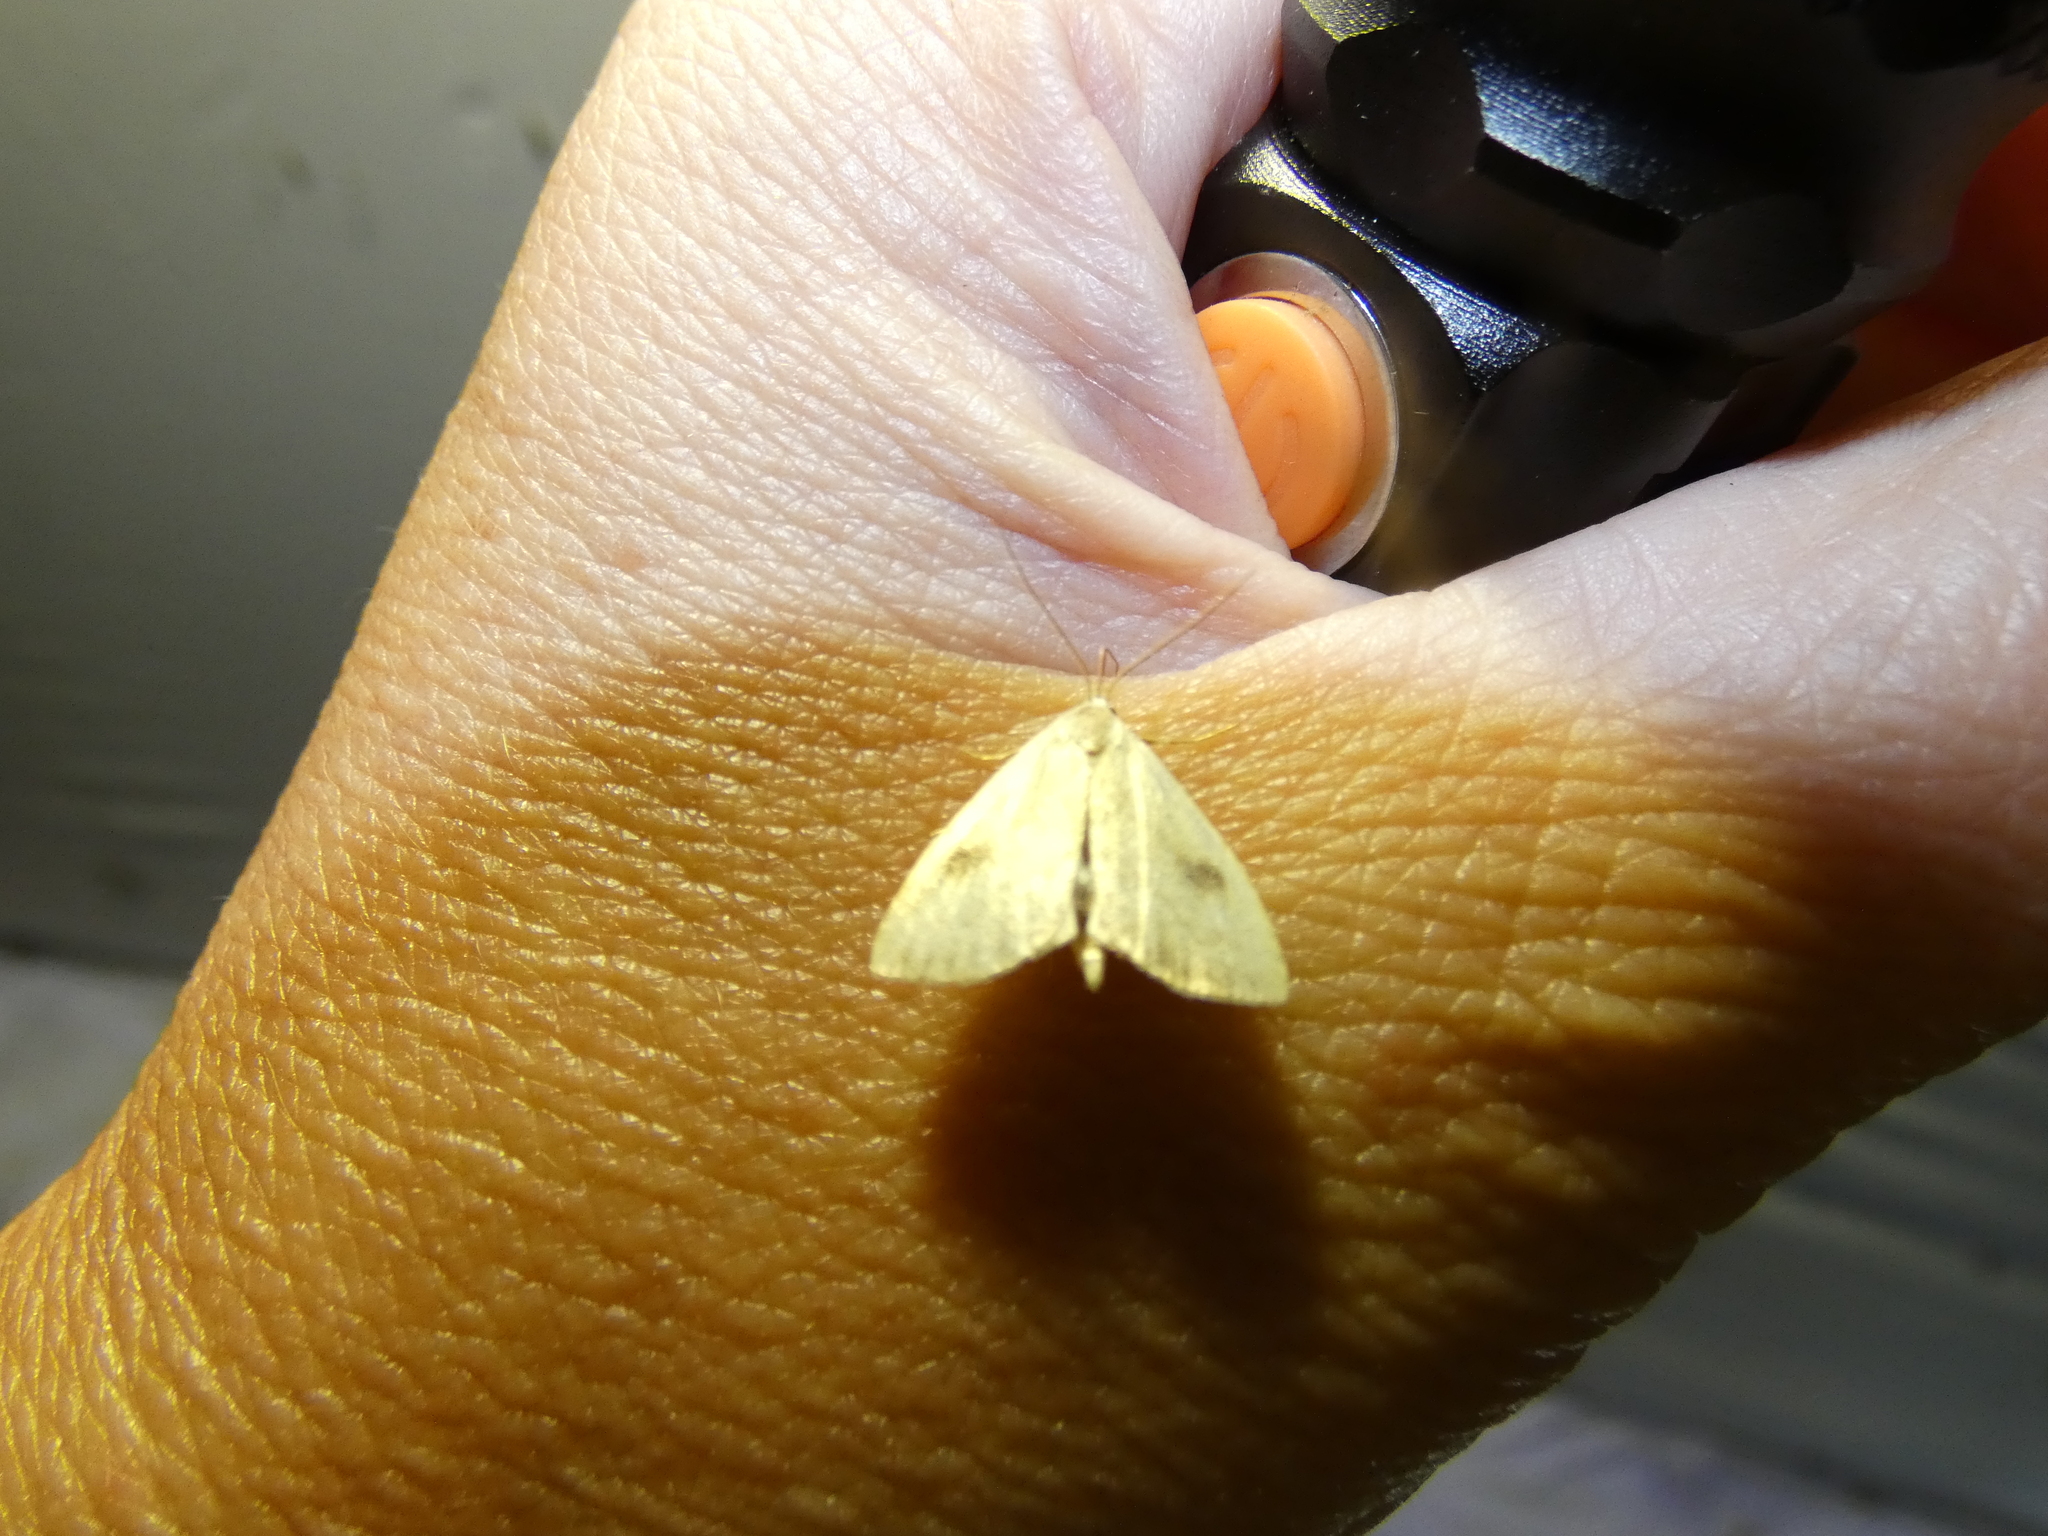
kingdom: Animalia
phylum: Arthropoda
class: Insecta
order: Lepidoptera
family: Erebidae
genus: Rivula
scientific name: Rivula sericealis
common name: Straw dot
